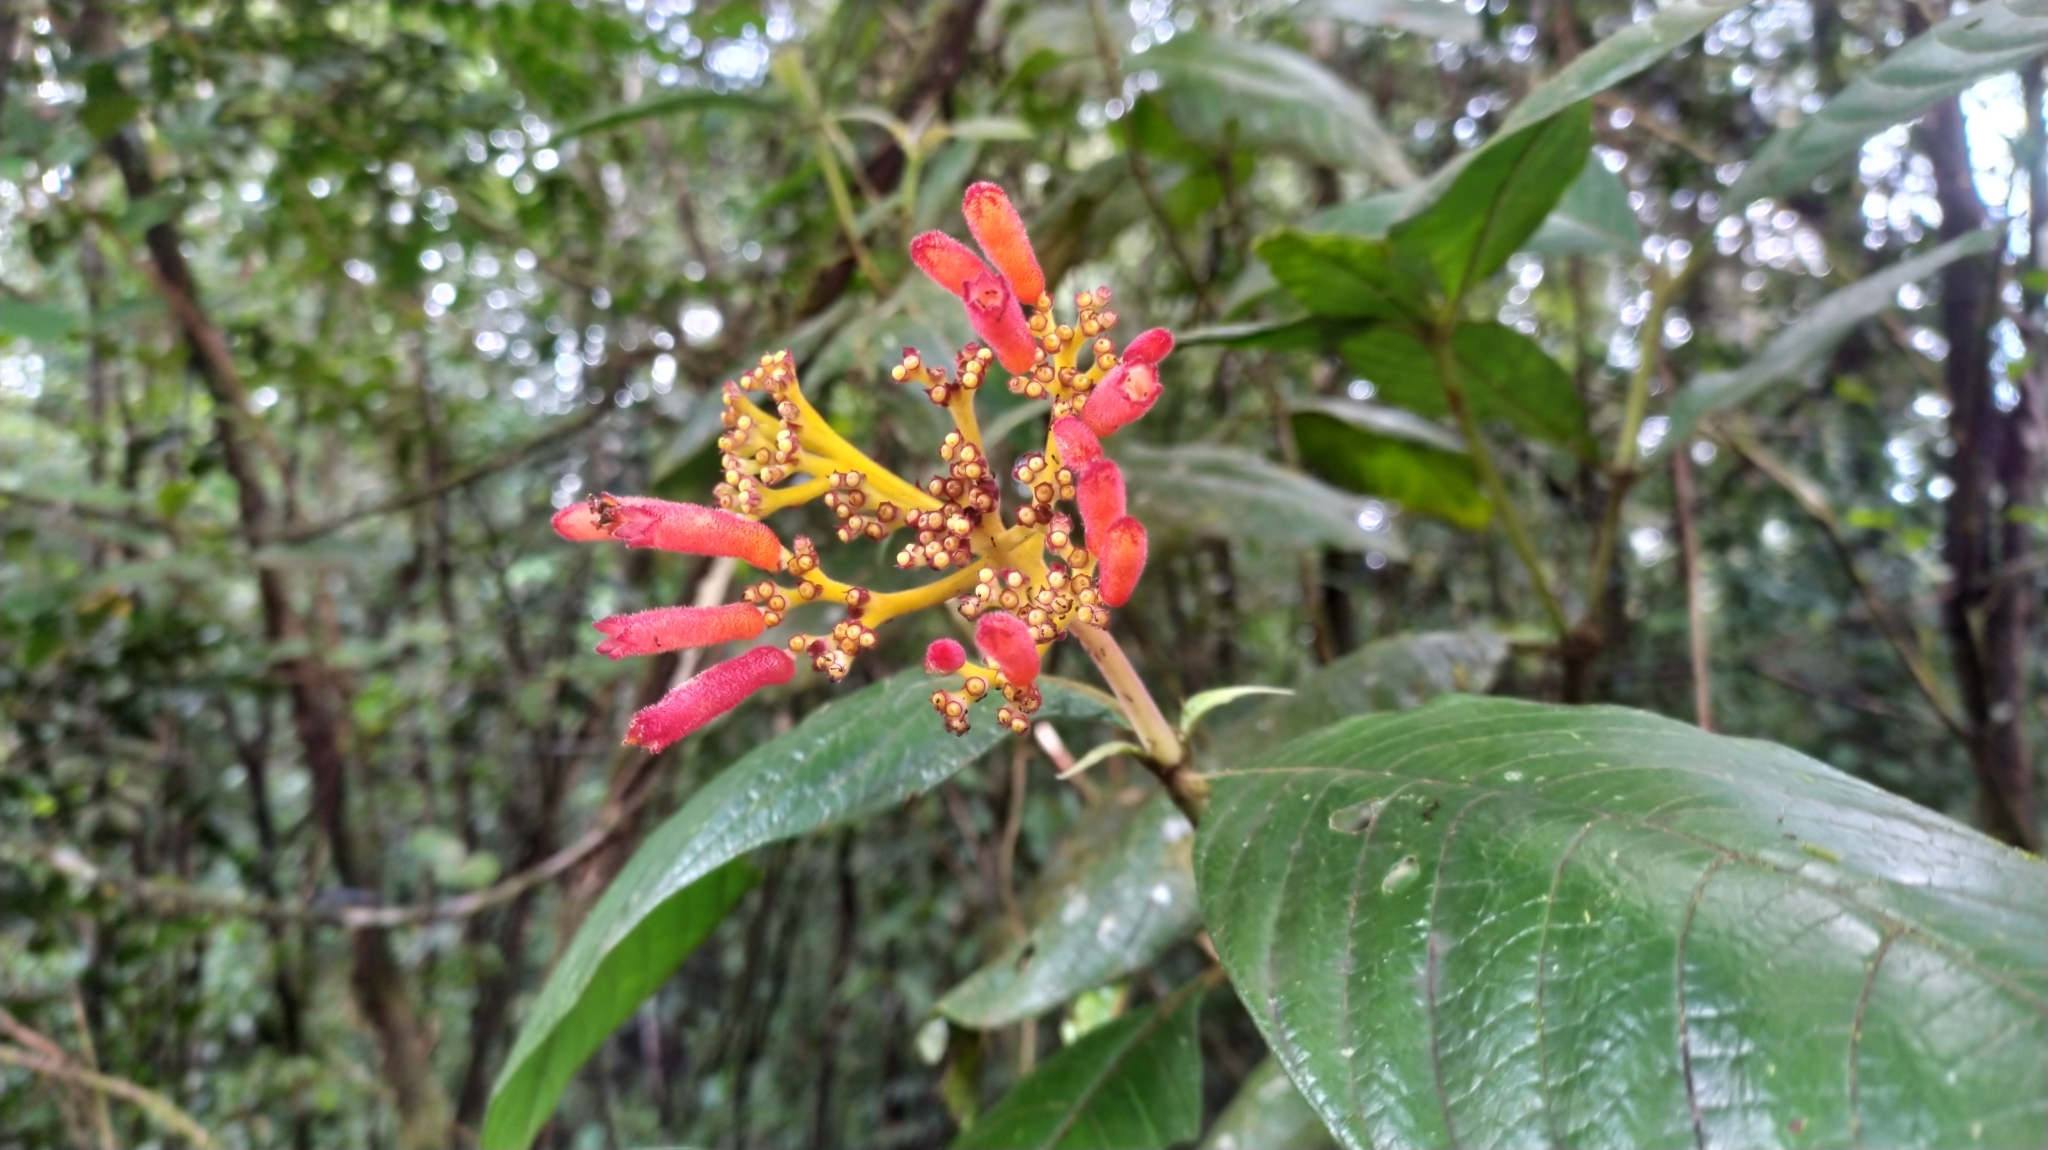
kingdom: Plantae
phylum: Tracheophyta
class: Magnoliopsida
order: Gentianales
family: Rubiaceae
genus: Palicourea
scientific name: Palicourea longistipulata
